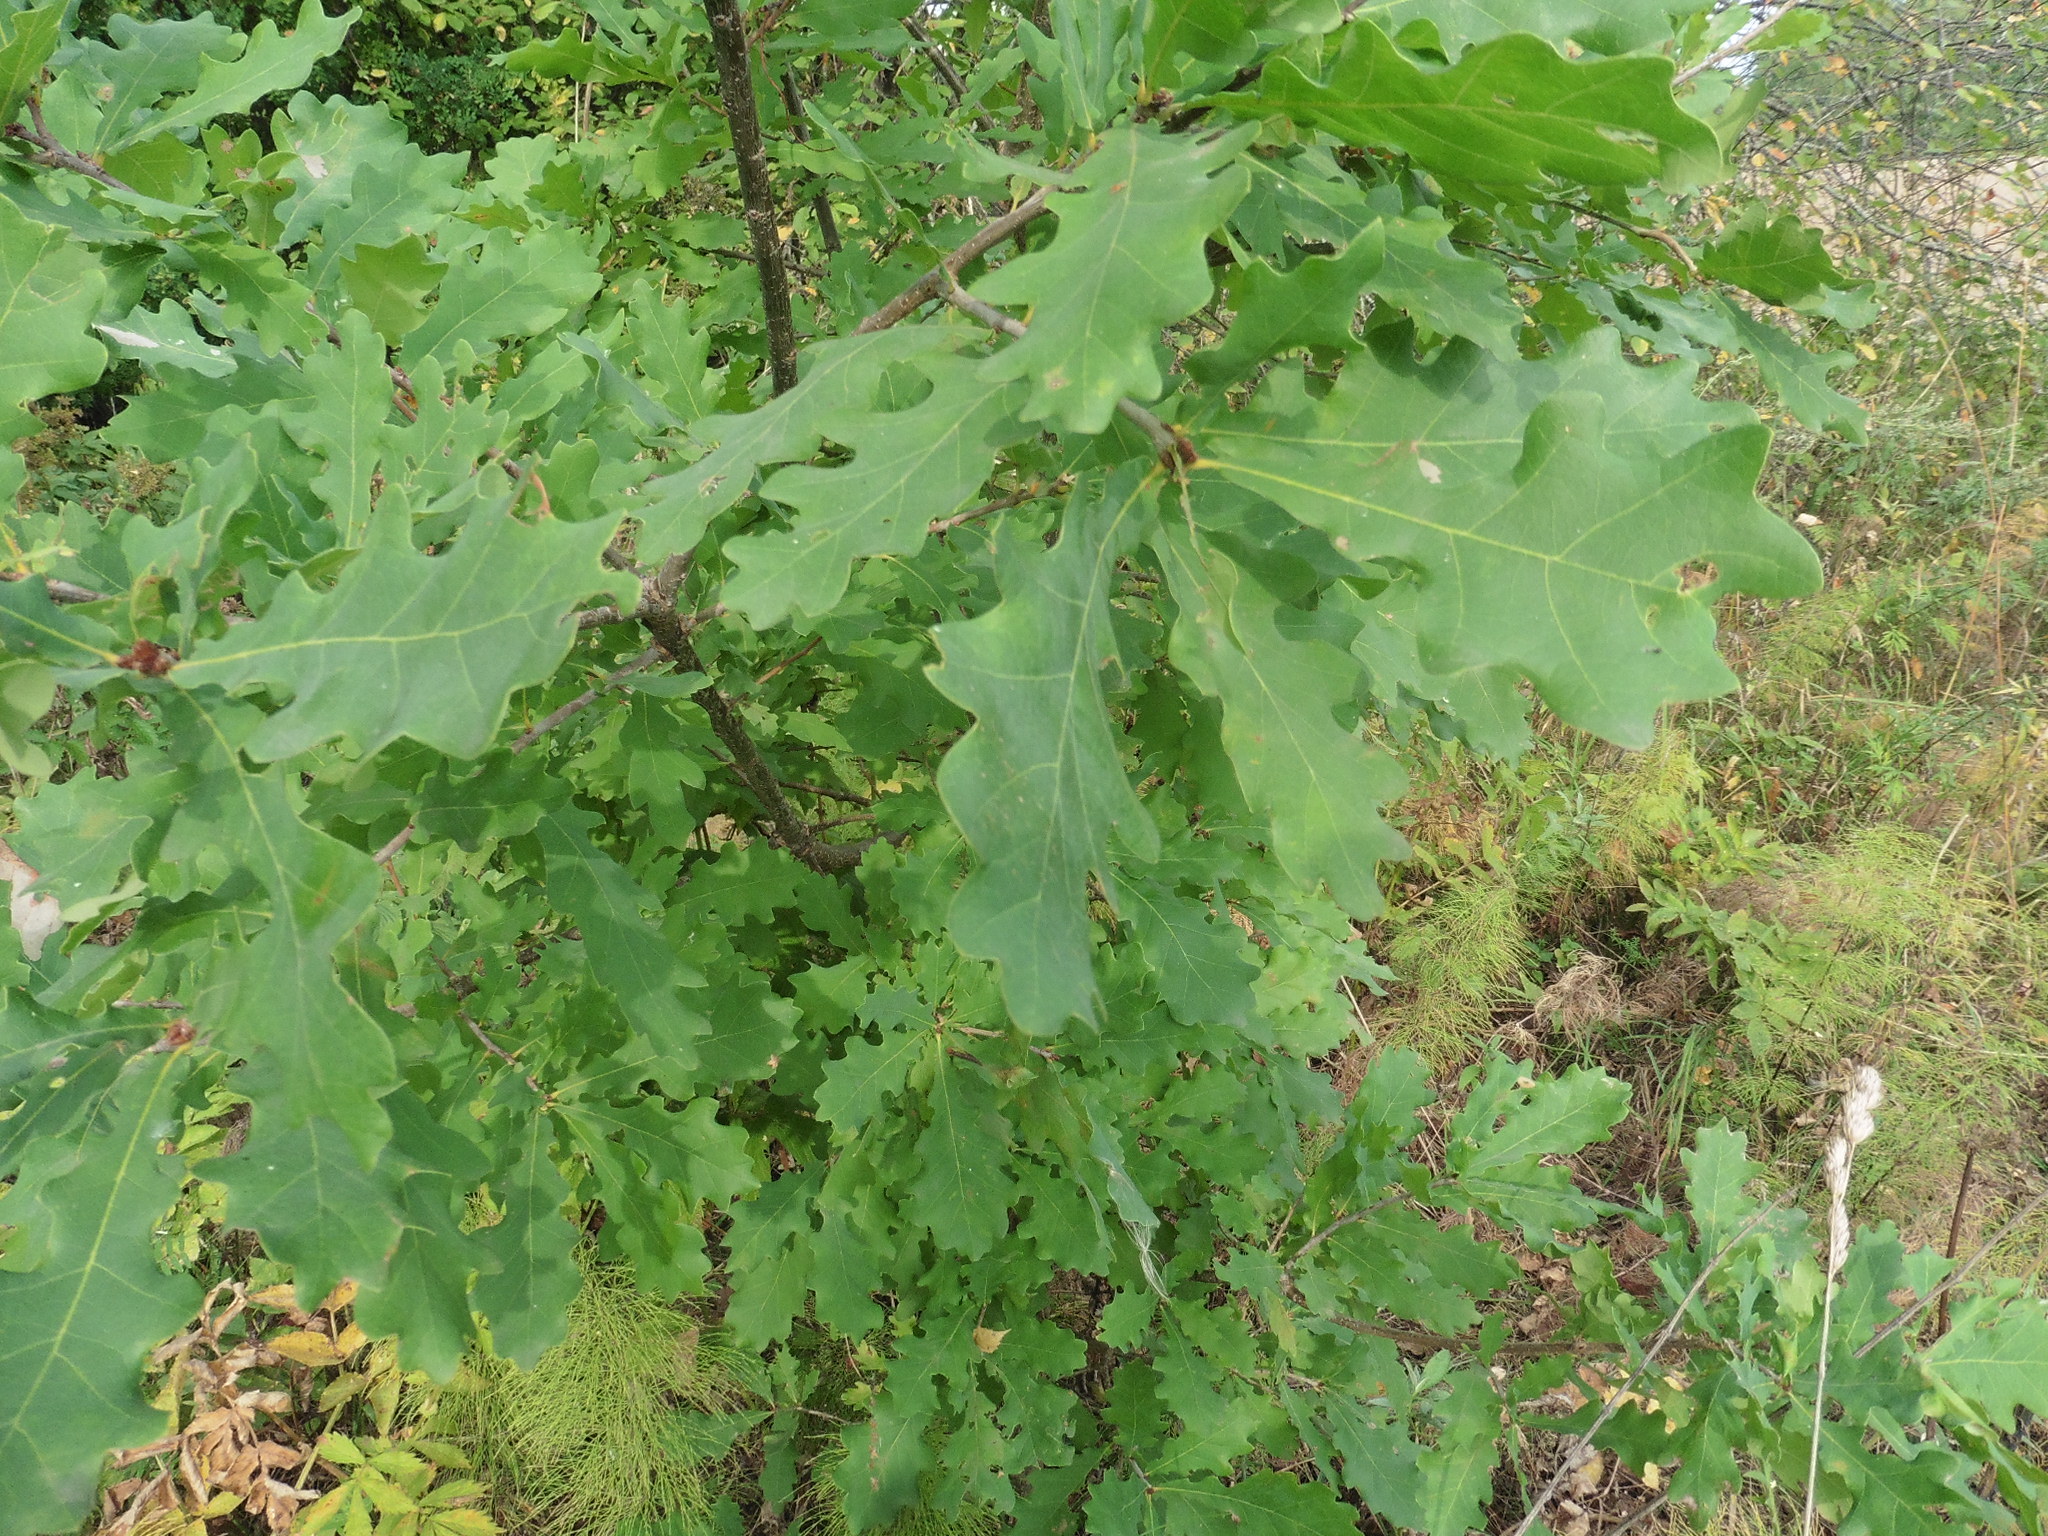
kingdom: Plantae
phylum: Tracheophyta
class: Magnoliopsida
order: Fagales
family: Fagaceae
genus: Quercus
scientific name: Quercus robur
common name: Pedunculate oak
